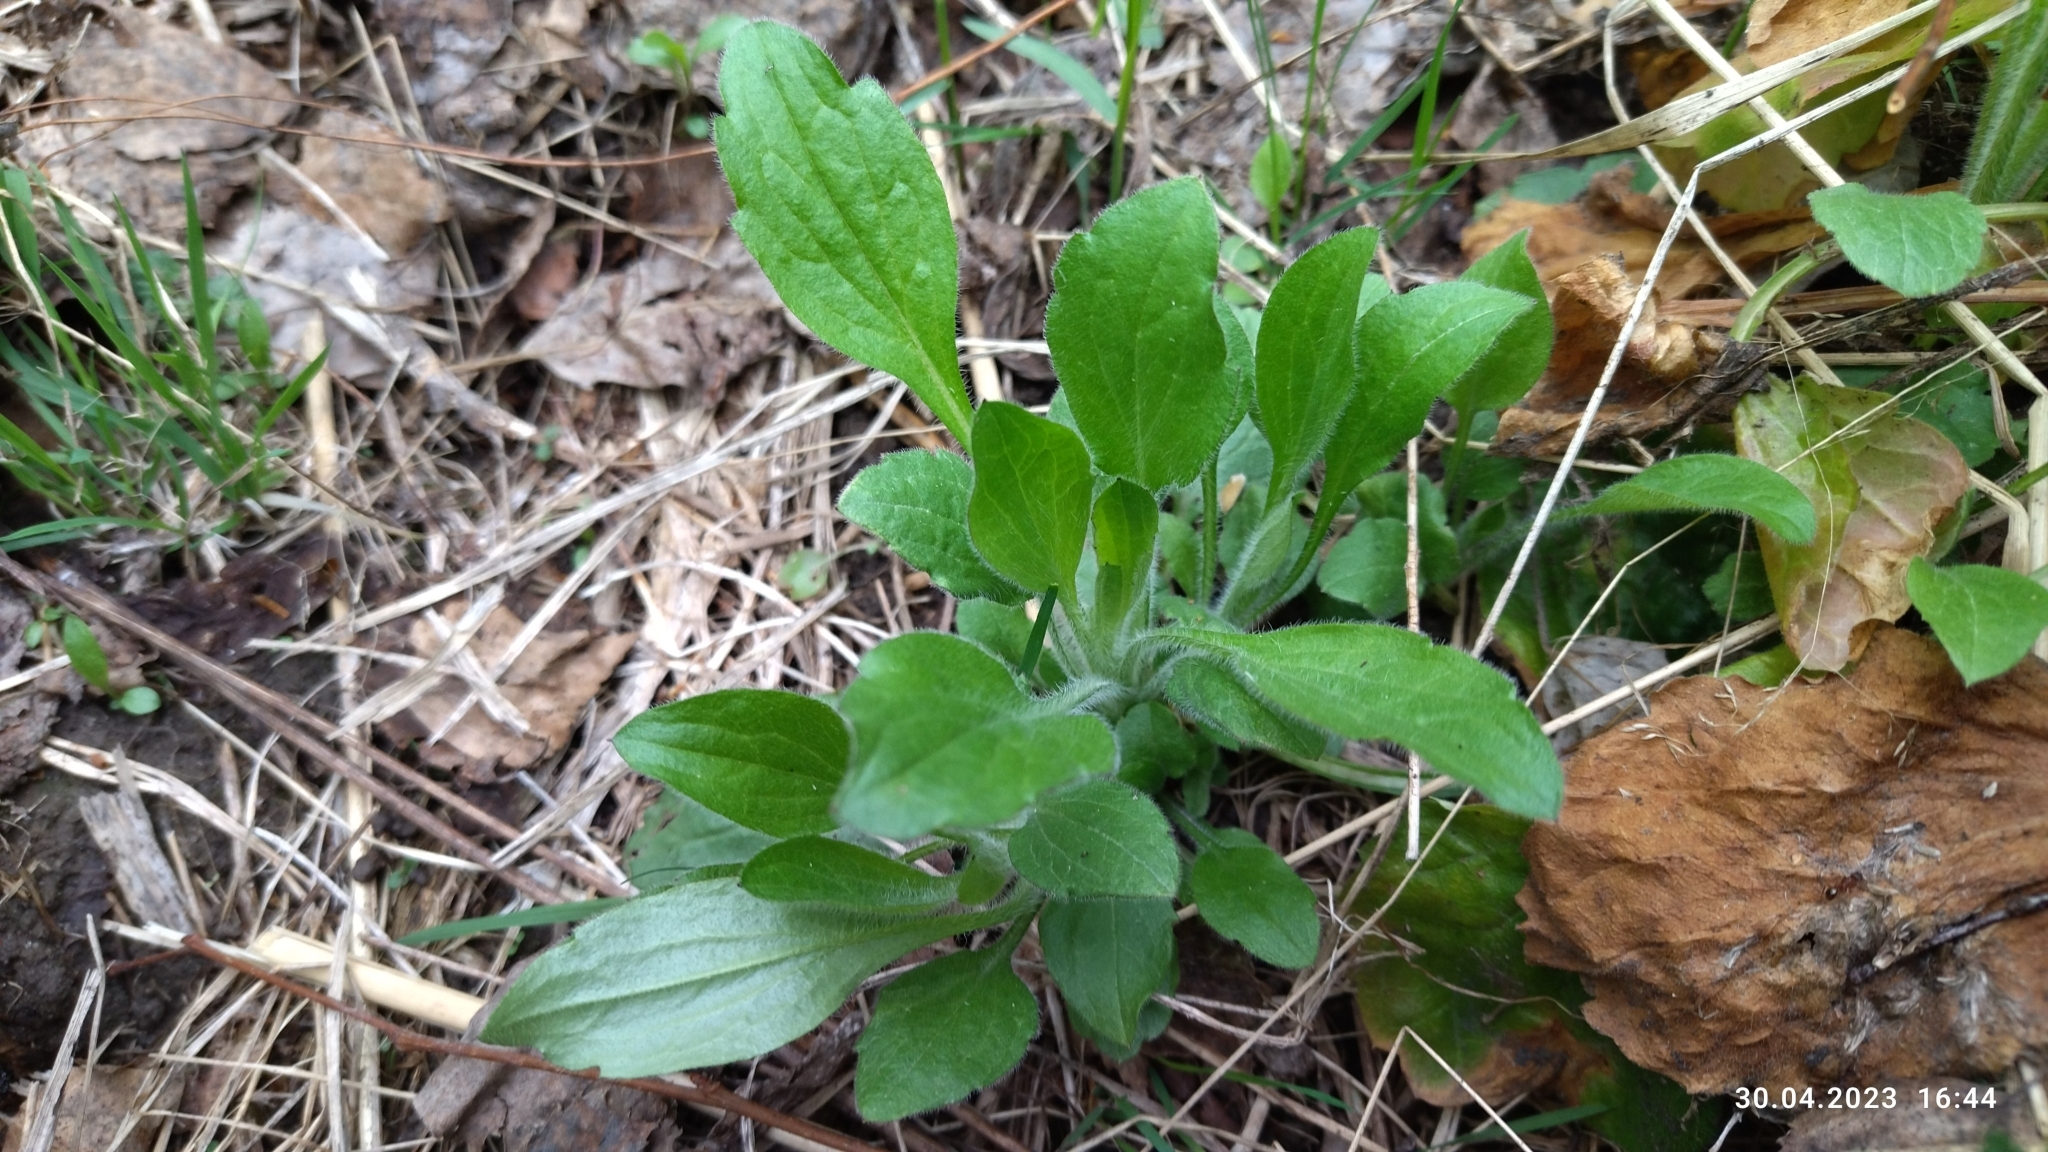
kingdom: Plantae
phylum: Tracheophyta
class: Magnoliopsida
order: Asterales
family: Asteraceae
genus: Erigeron
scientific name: Erigeron annuus
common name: Tall fleabane
